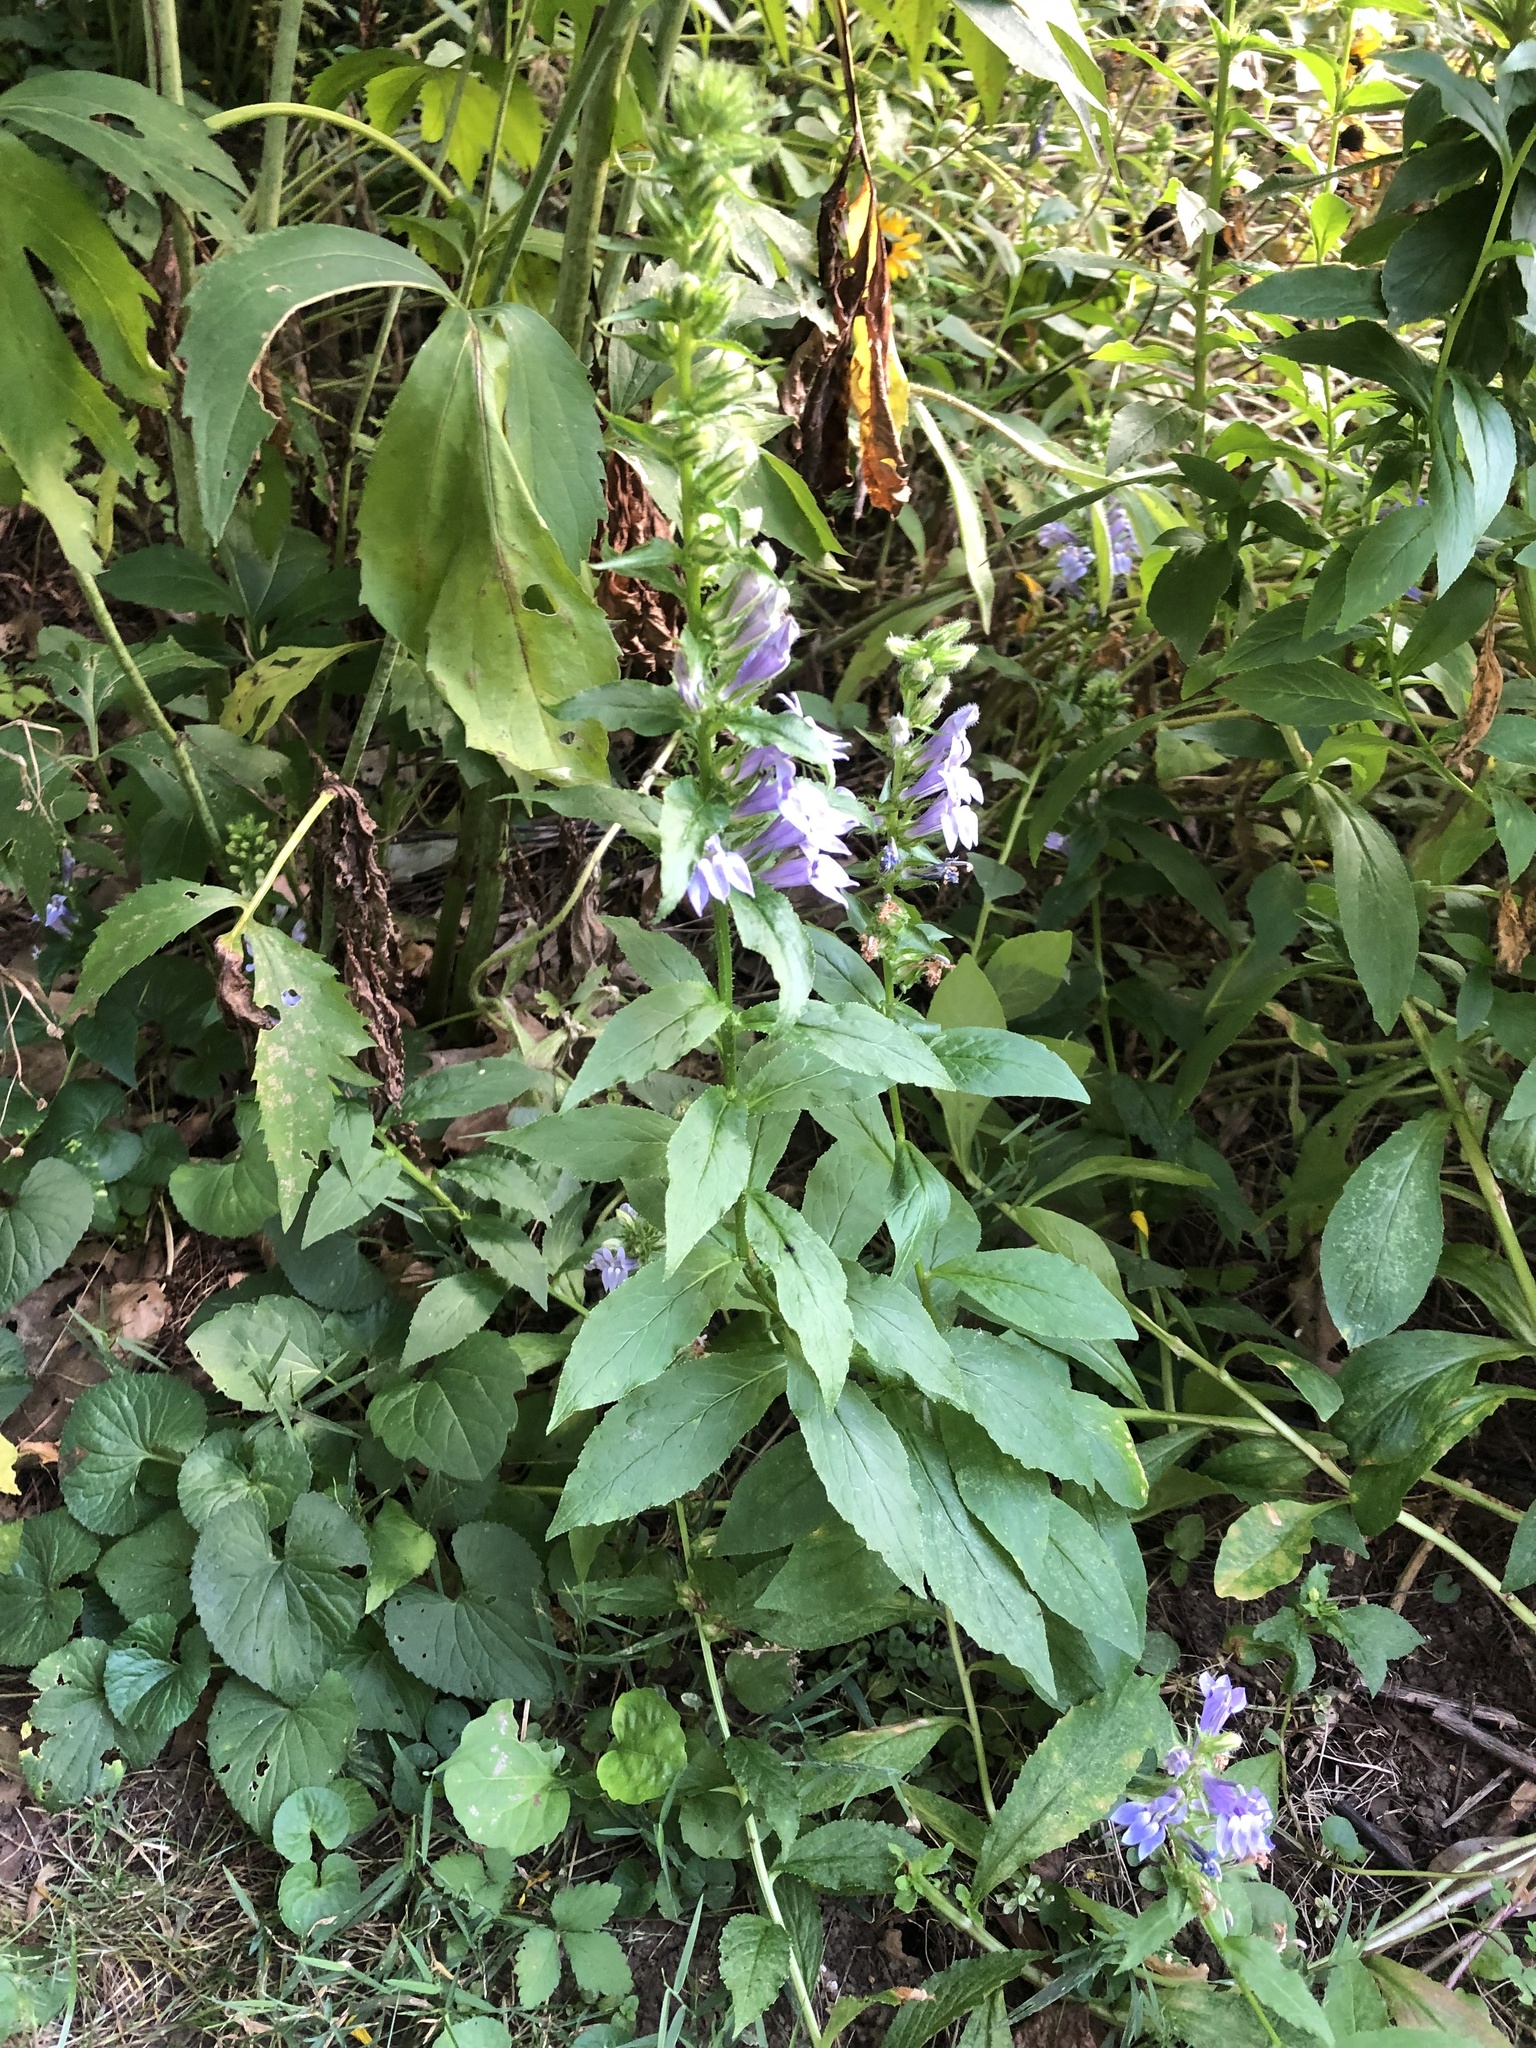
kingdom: Plantae
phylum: Tracheophyta
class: Magnoliopsida
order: Asterales
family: Campanulaceae
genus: Lobelia
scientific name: Lobelia siphilitica
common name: Great lobelia
